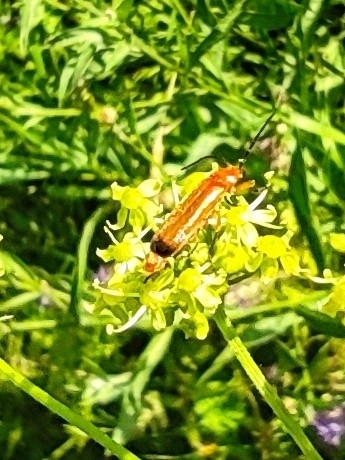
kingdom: Animalia
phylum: Arthropoda
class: Insecta
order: Coleoptera
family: Cantharidae
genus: Rhagonycha
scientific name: Rhagonycha fulva
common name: Common red soldier beetle
